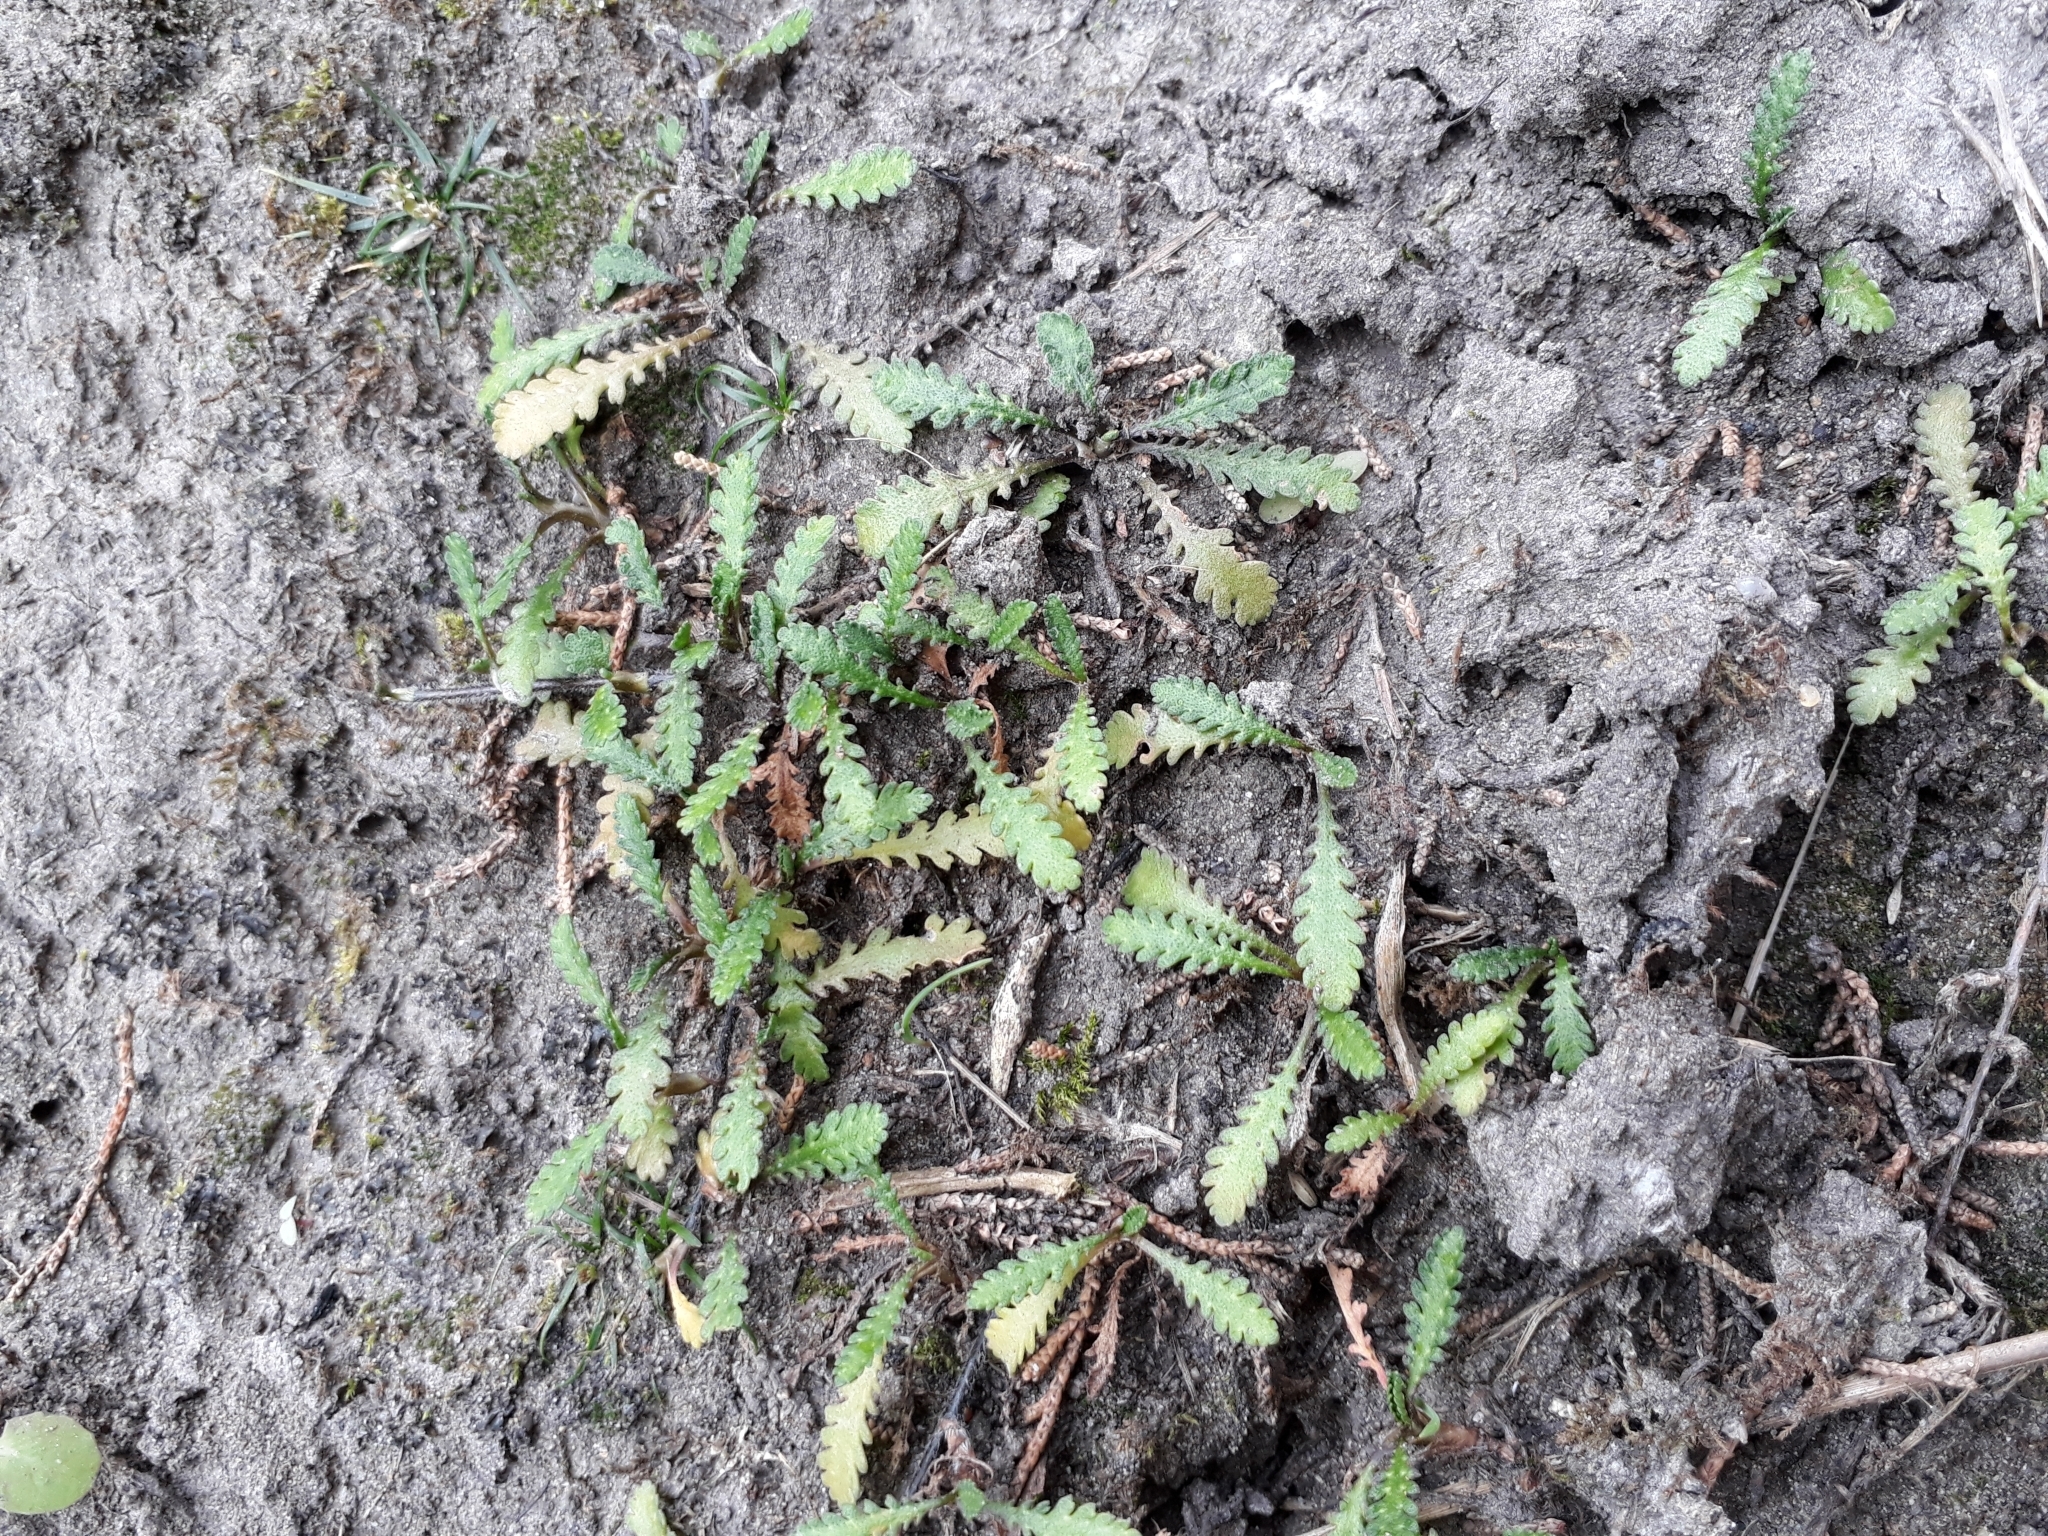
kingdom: Plantae
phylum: Tracheophyta
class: Magnoliopsida
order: Asterales
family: Asteraceae
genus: Leptinella
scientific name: Leptinella dioica
